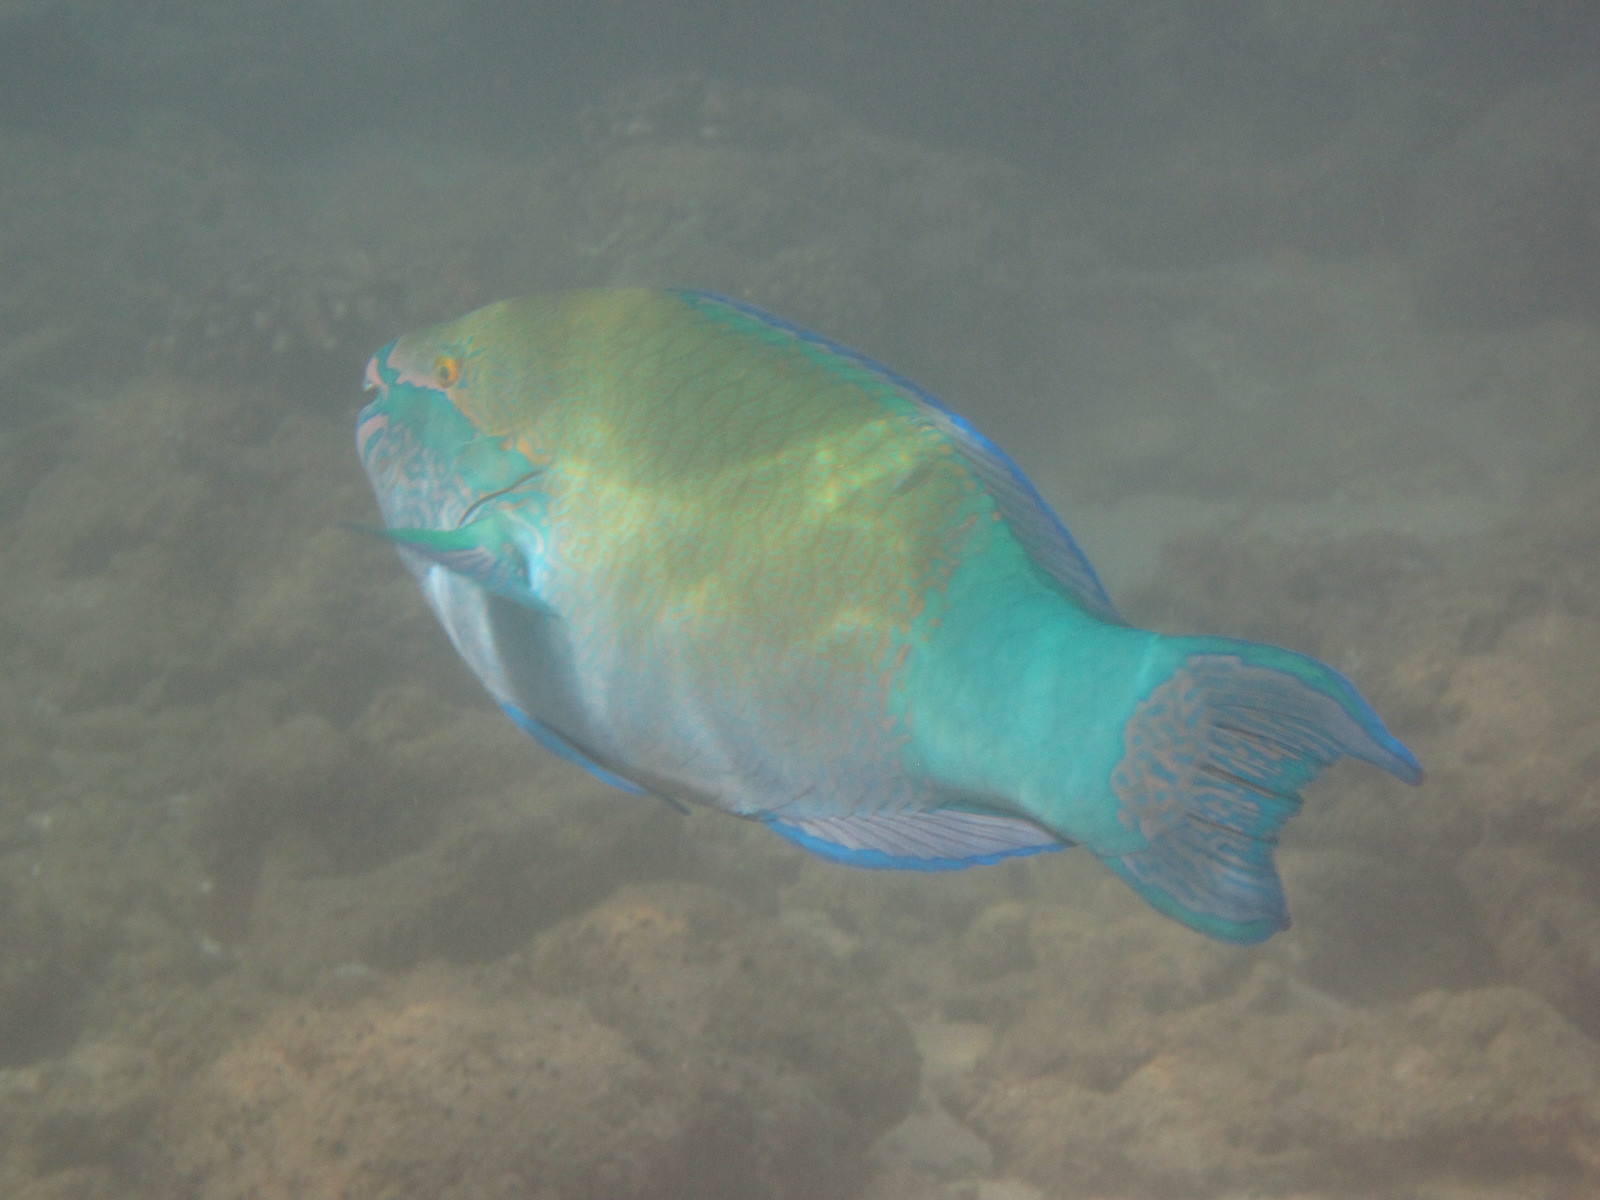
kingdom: Animalia
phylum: Chordata
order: Perciformes
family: Scaridae
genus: Scarus
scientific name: Scarus frenatus
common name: Bridled parrotfish
